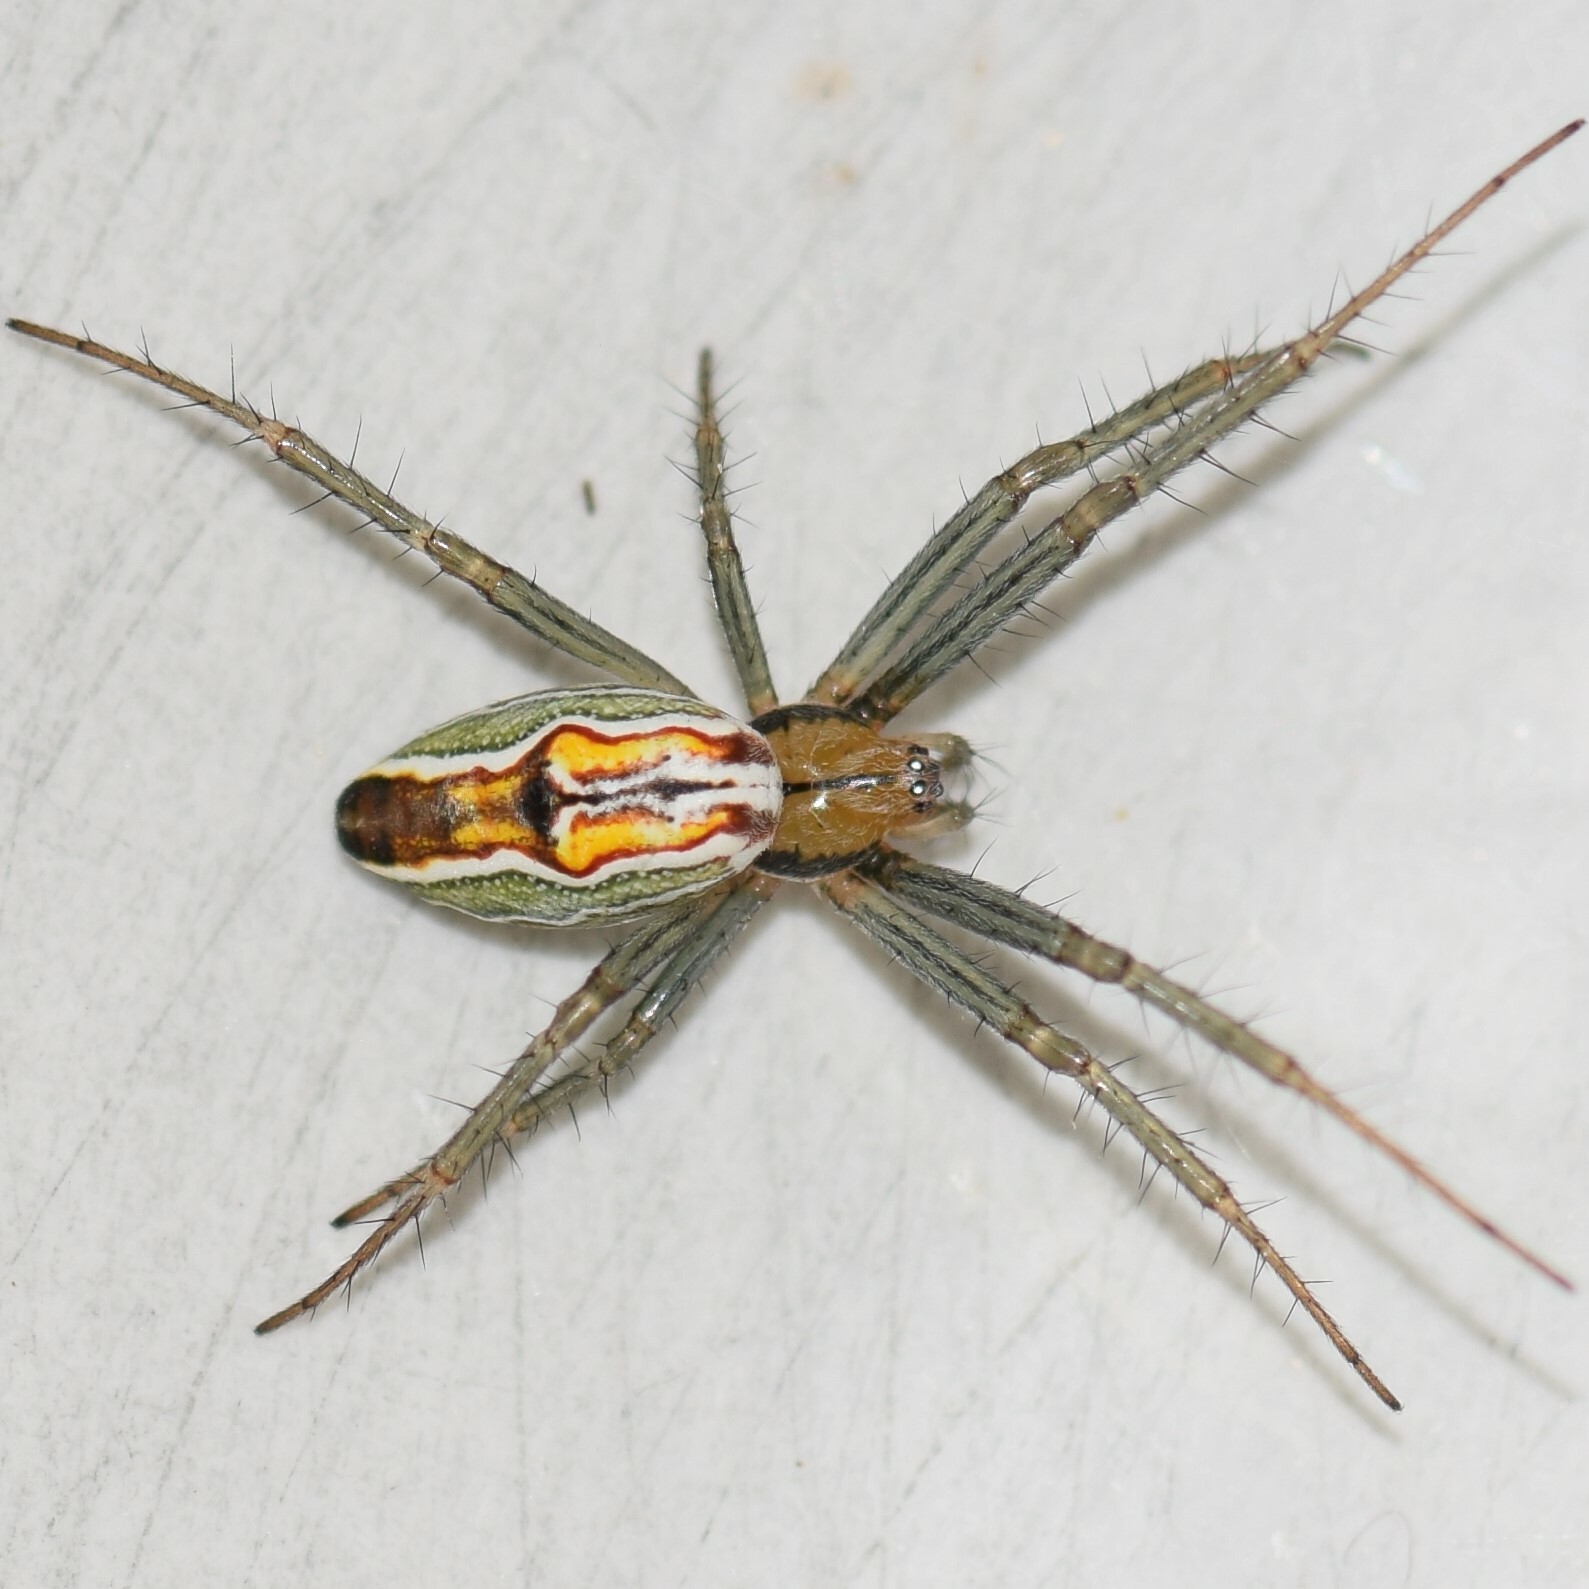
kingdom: Animalia
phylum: Arthropoda
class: Arachnida
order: Araneae
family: Araneidae
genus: Mecynogea
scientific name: Mecynogea lemniscata
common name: Orb weavers
